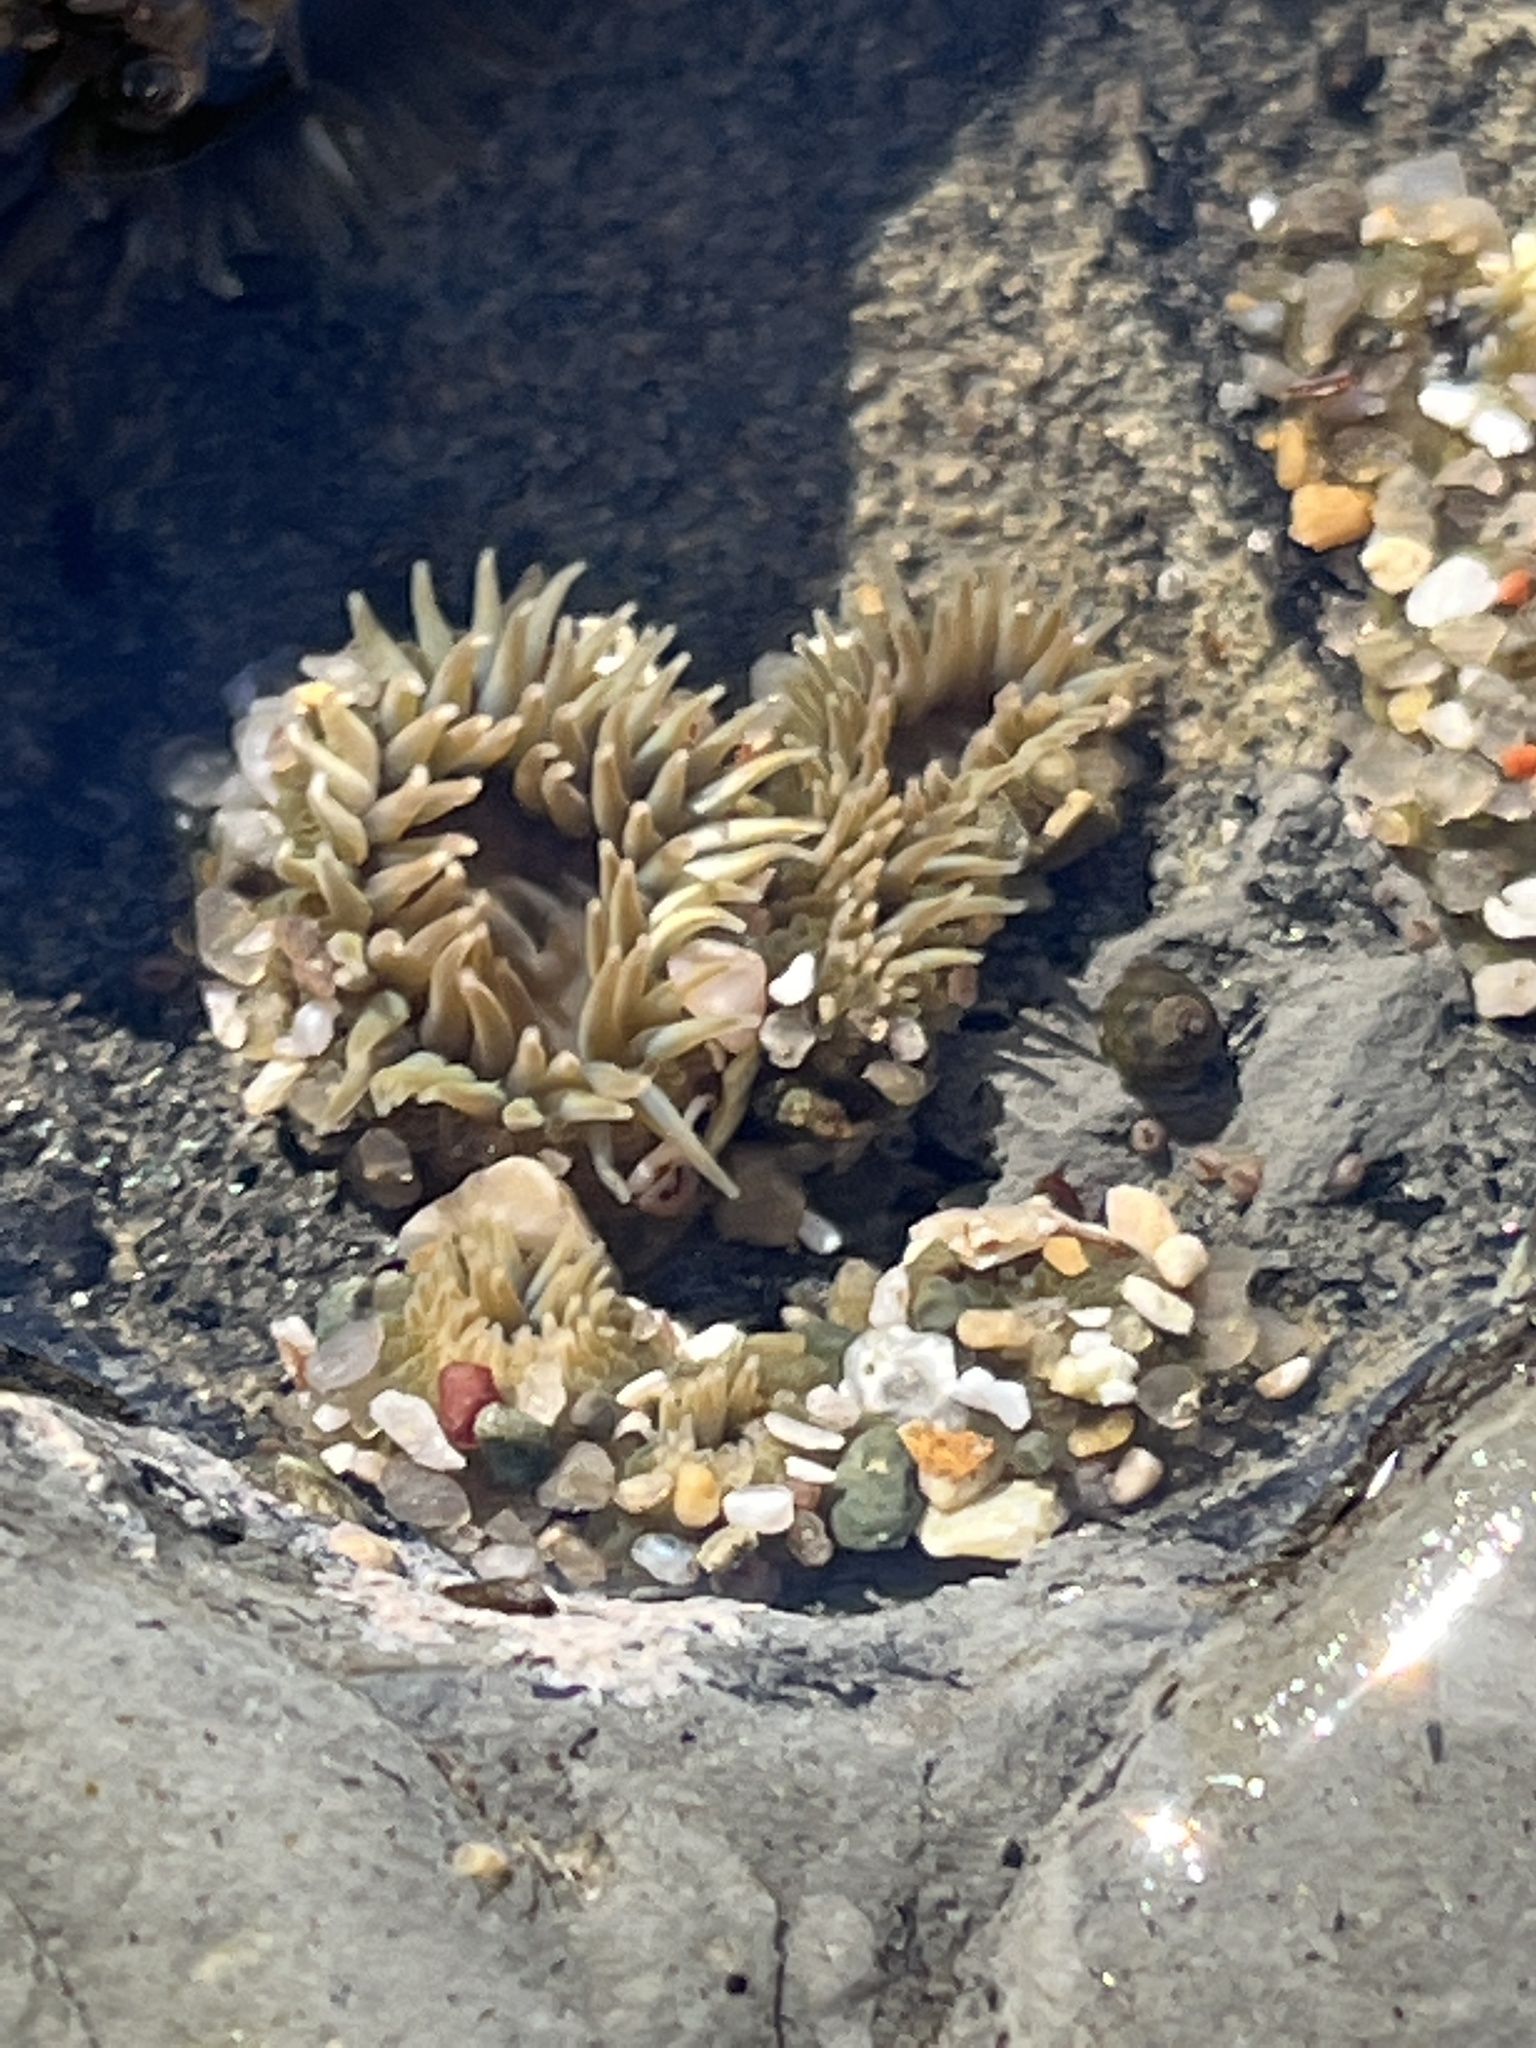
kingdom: Animalia
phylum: Cnidaria
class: Anthozoa
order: Actiniaria
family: Actiniidae
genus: Anthopleura
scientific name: Anthopleura elegantissima
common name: Clonal anemone
